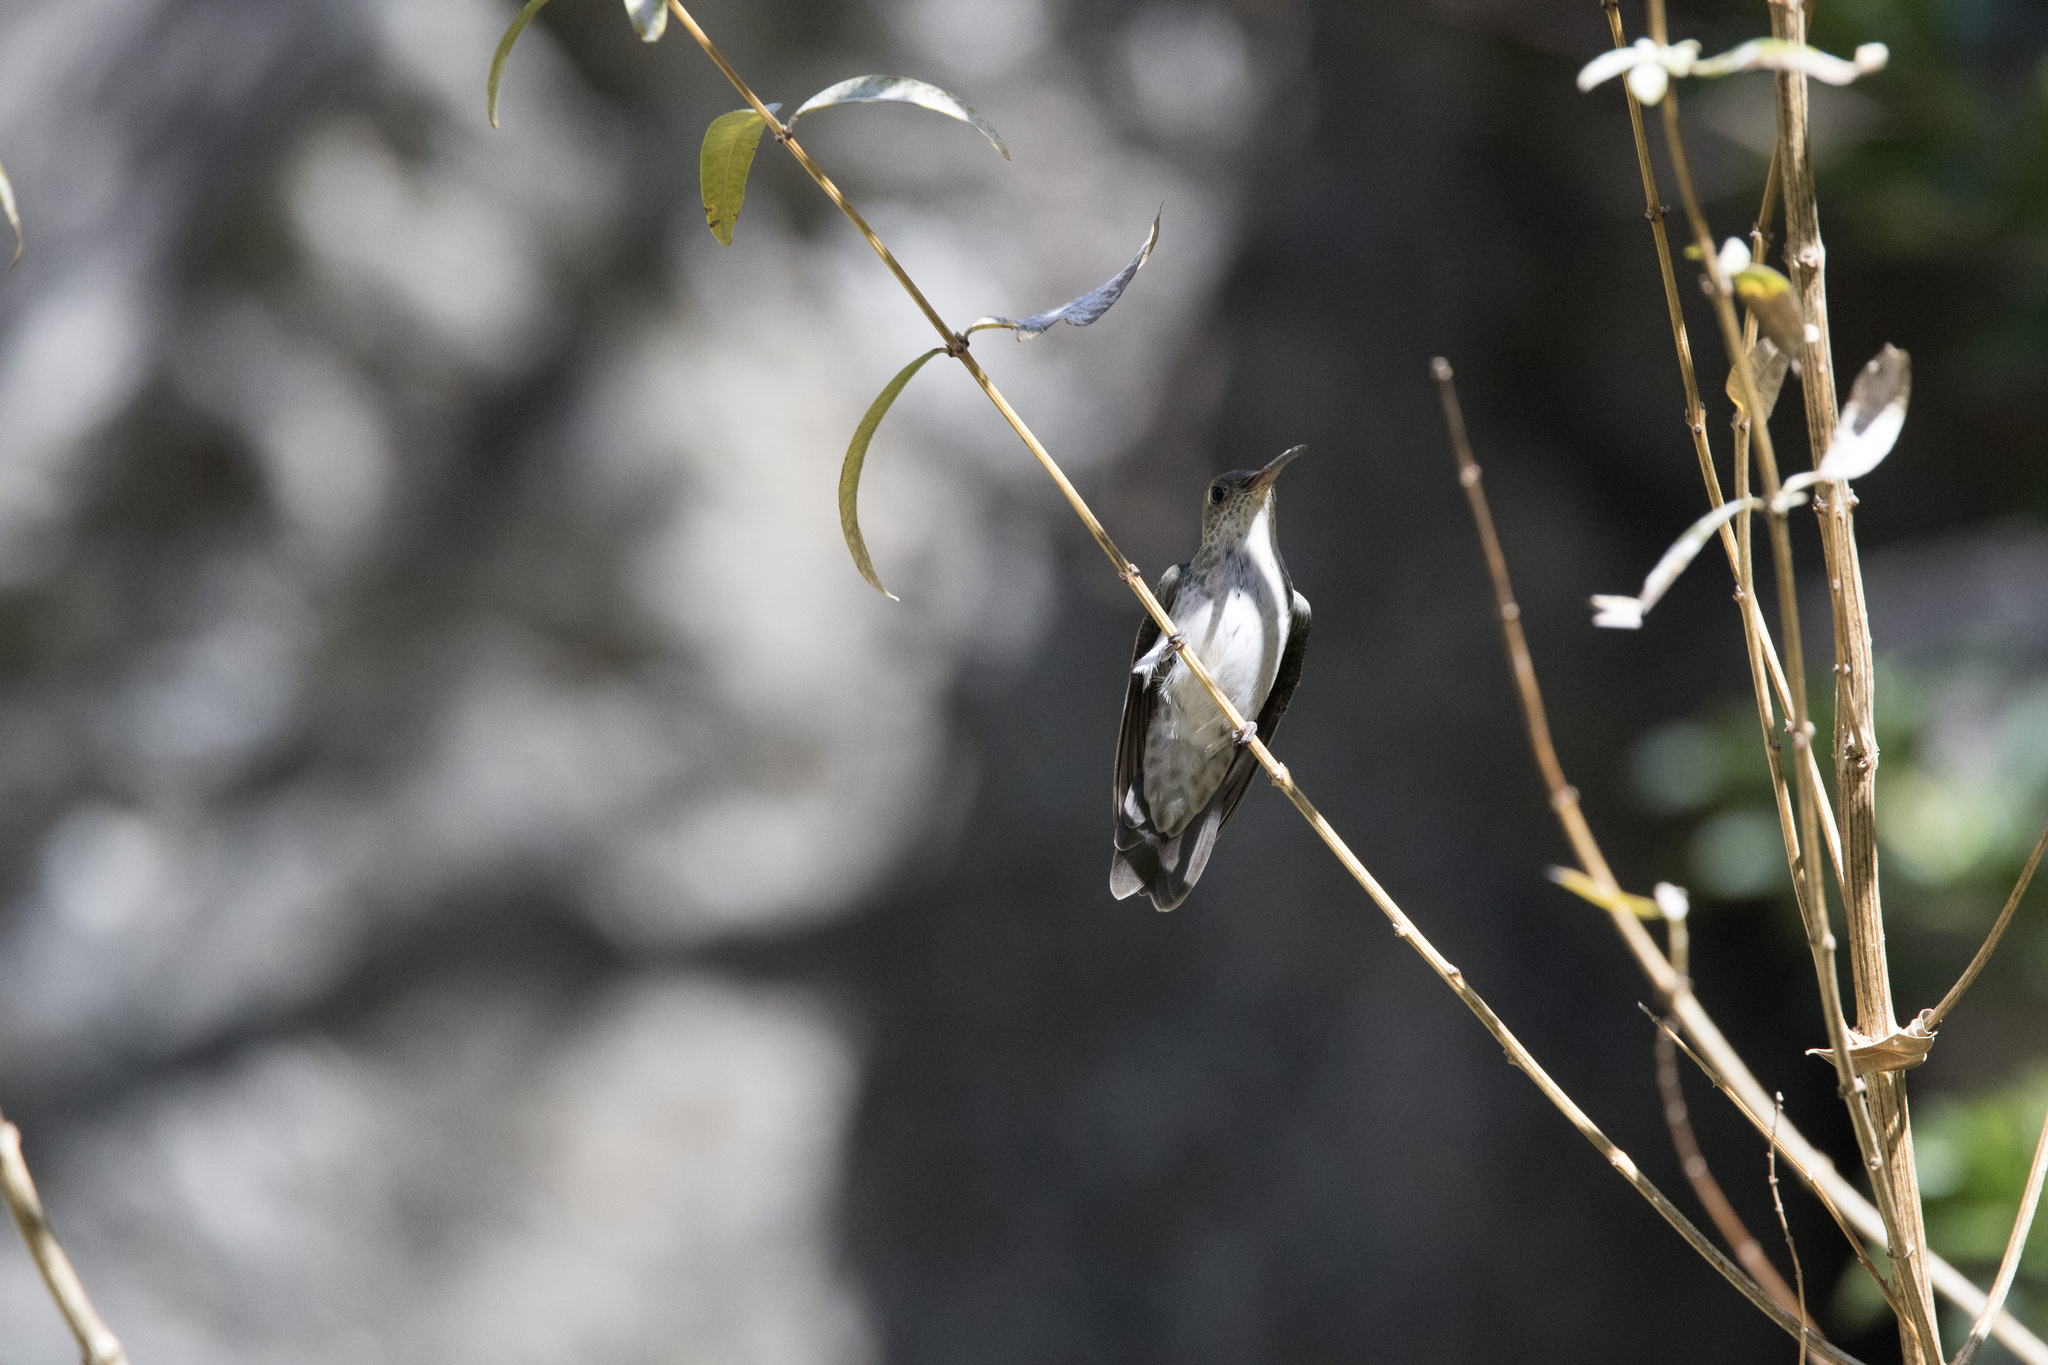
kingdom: Animalia
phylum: Chordata
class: Aves
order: Apodiformes
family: Trochilidae
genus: Elliotomyia
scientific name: Elliotomyia viridicauda
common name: Green-and-white hummingbird
